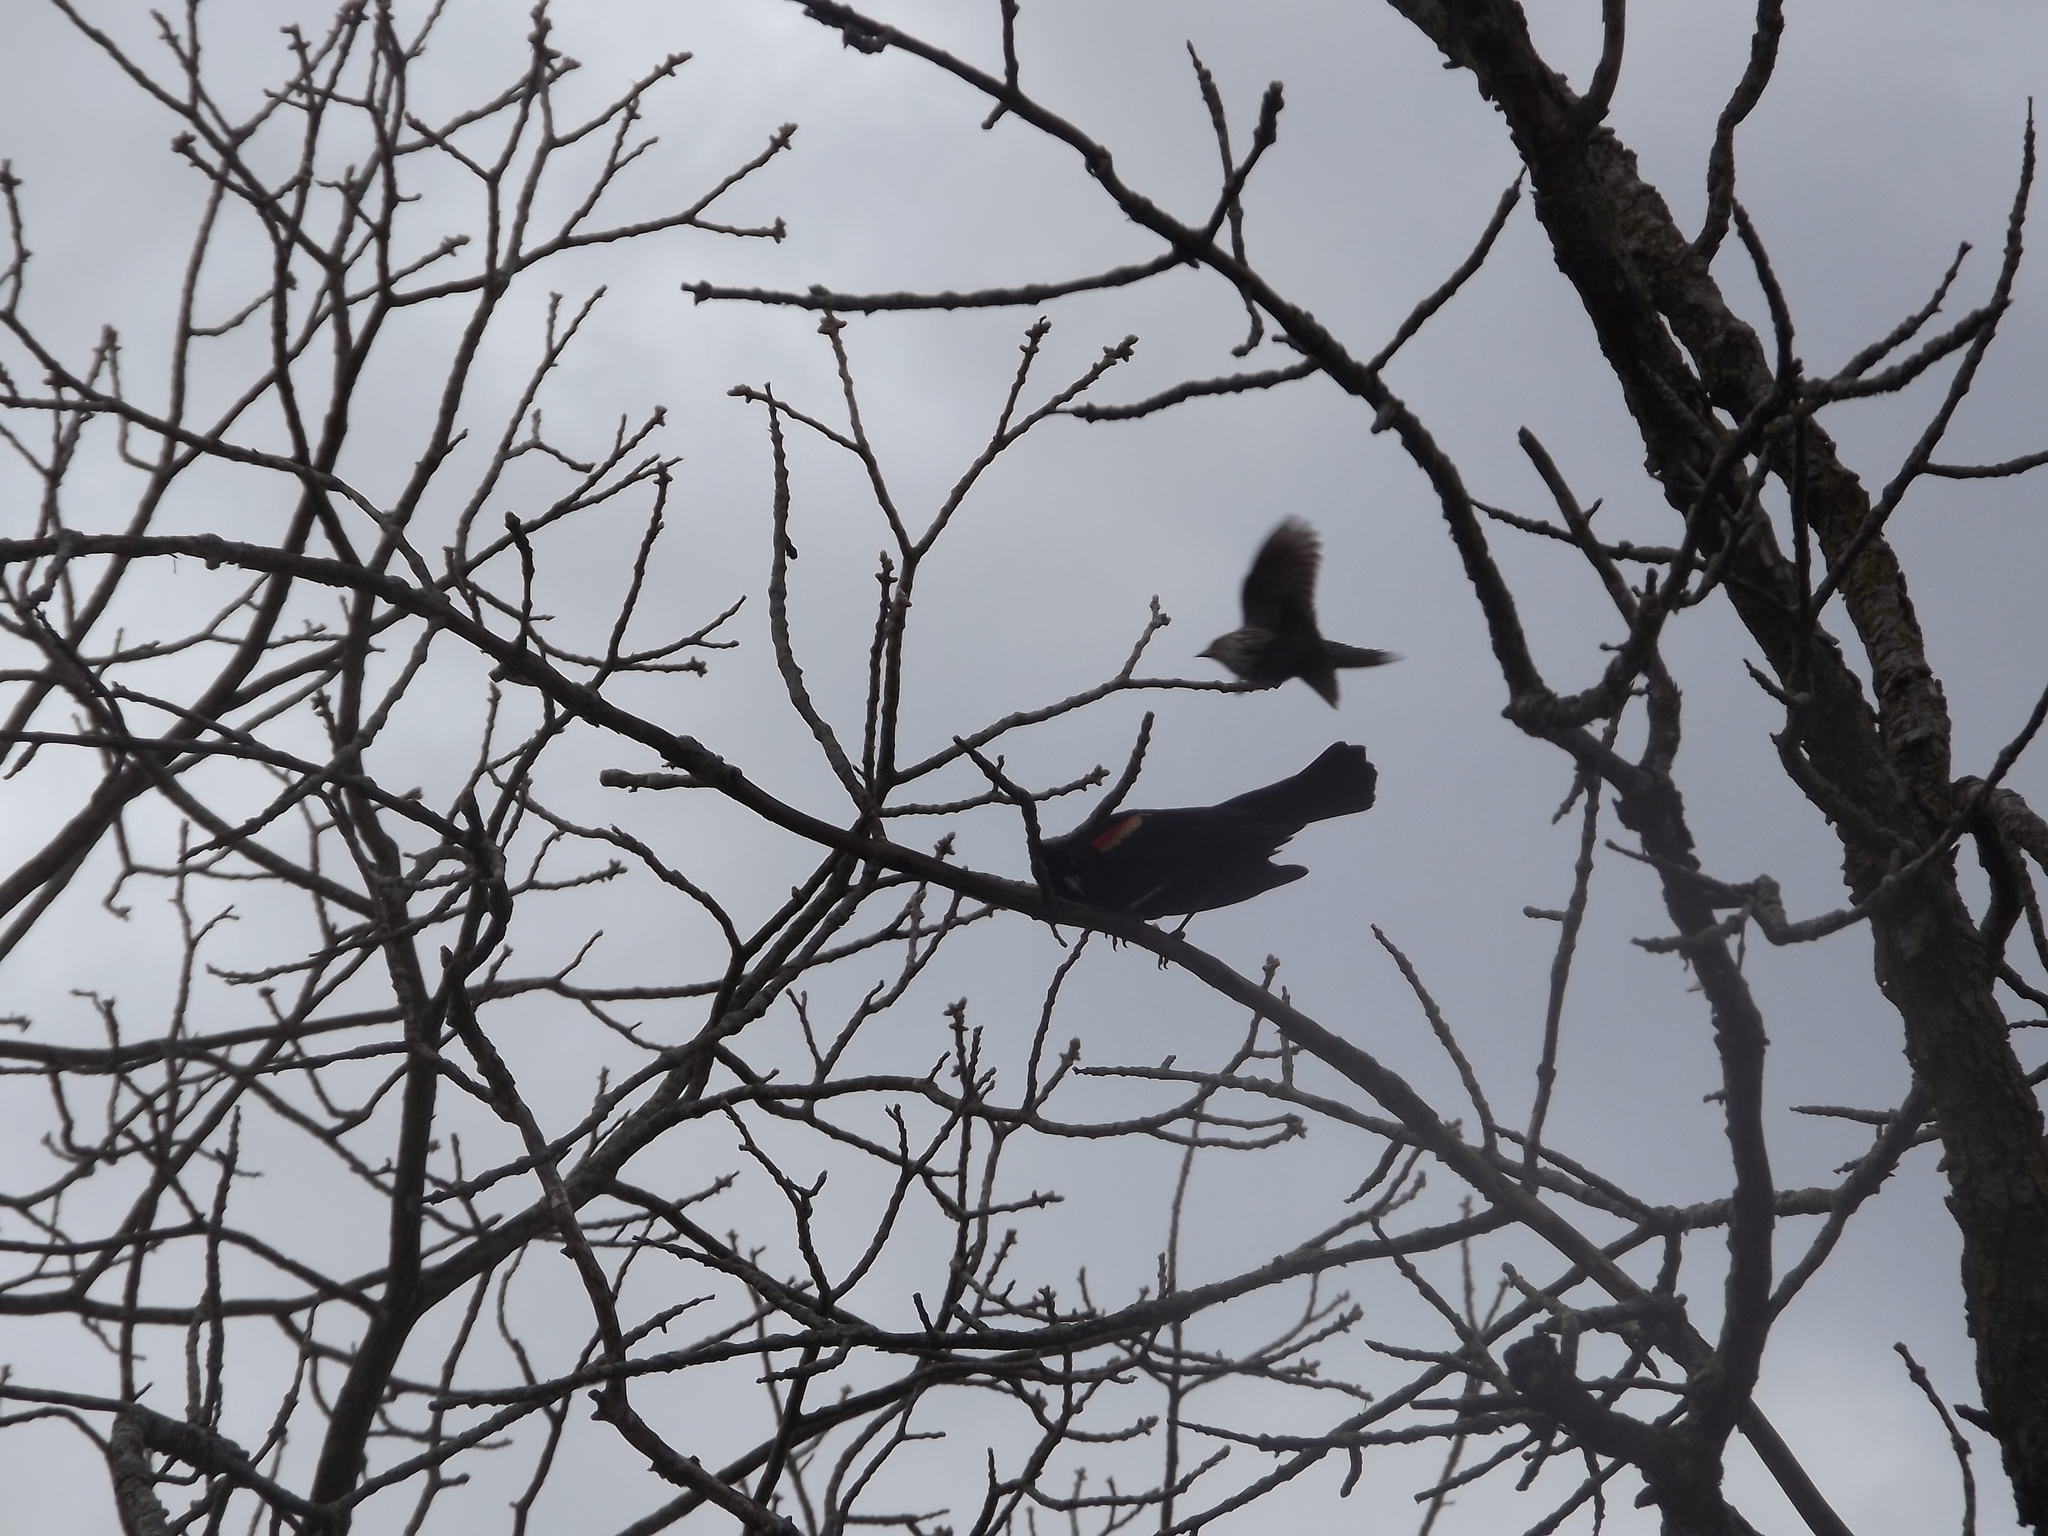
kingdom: Animalia
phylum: Chordata
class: Aves
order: Passeriformes
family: Icteridae
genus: Agelaius
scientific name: Agelaius phoeniceus
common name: Red-winged blackbird
